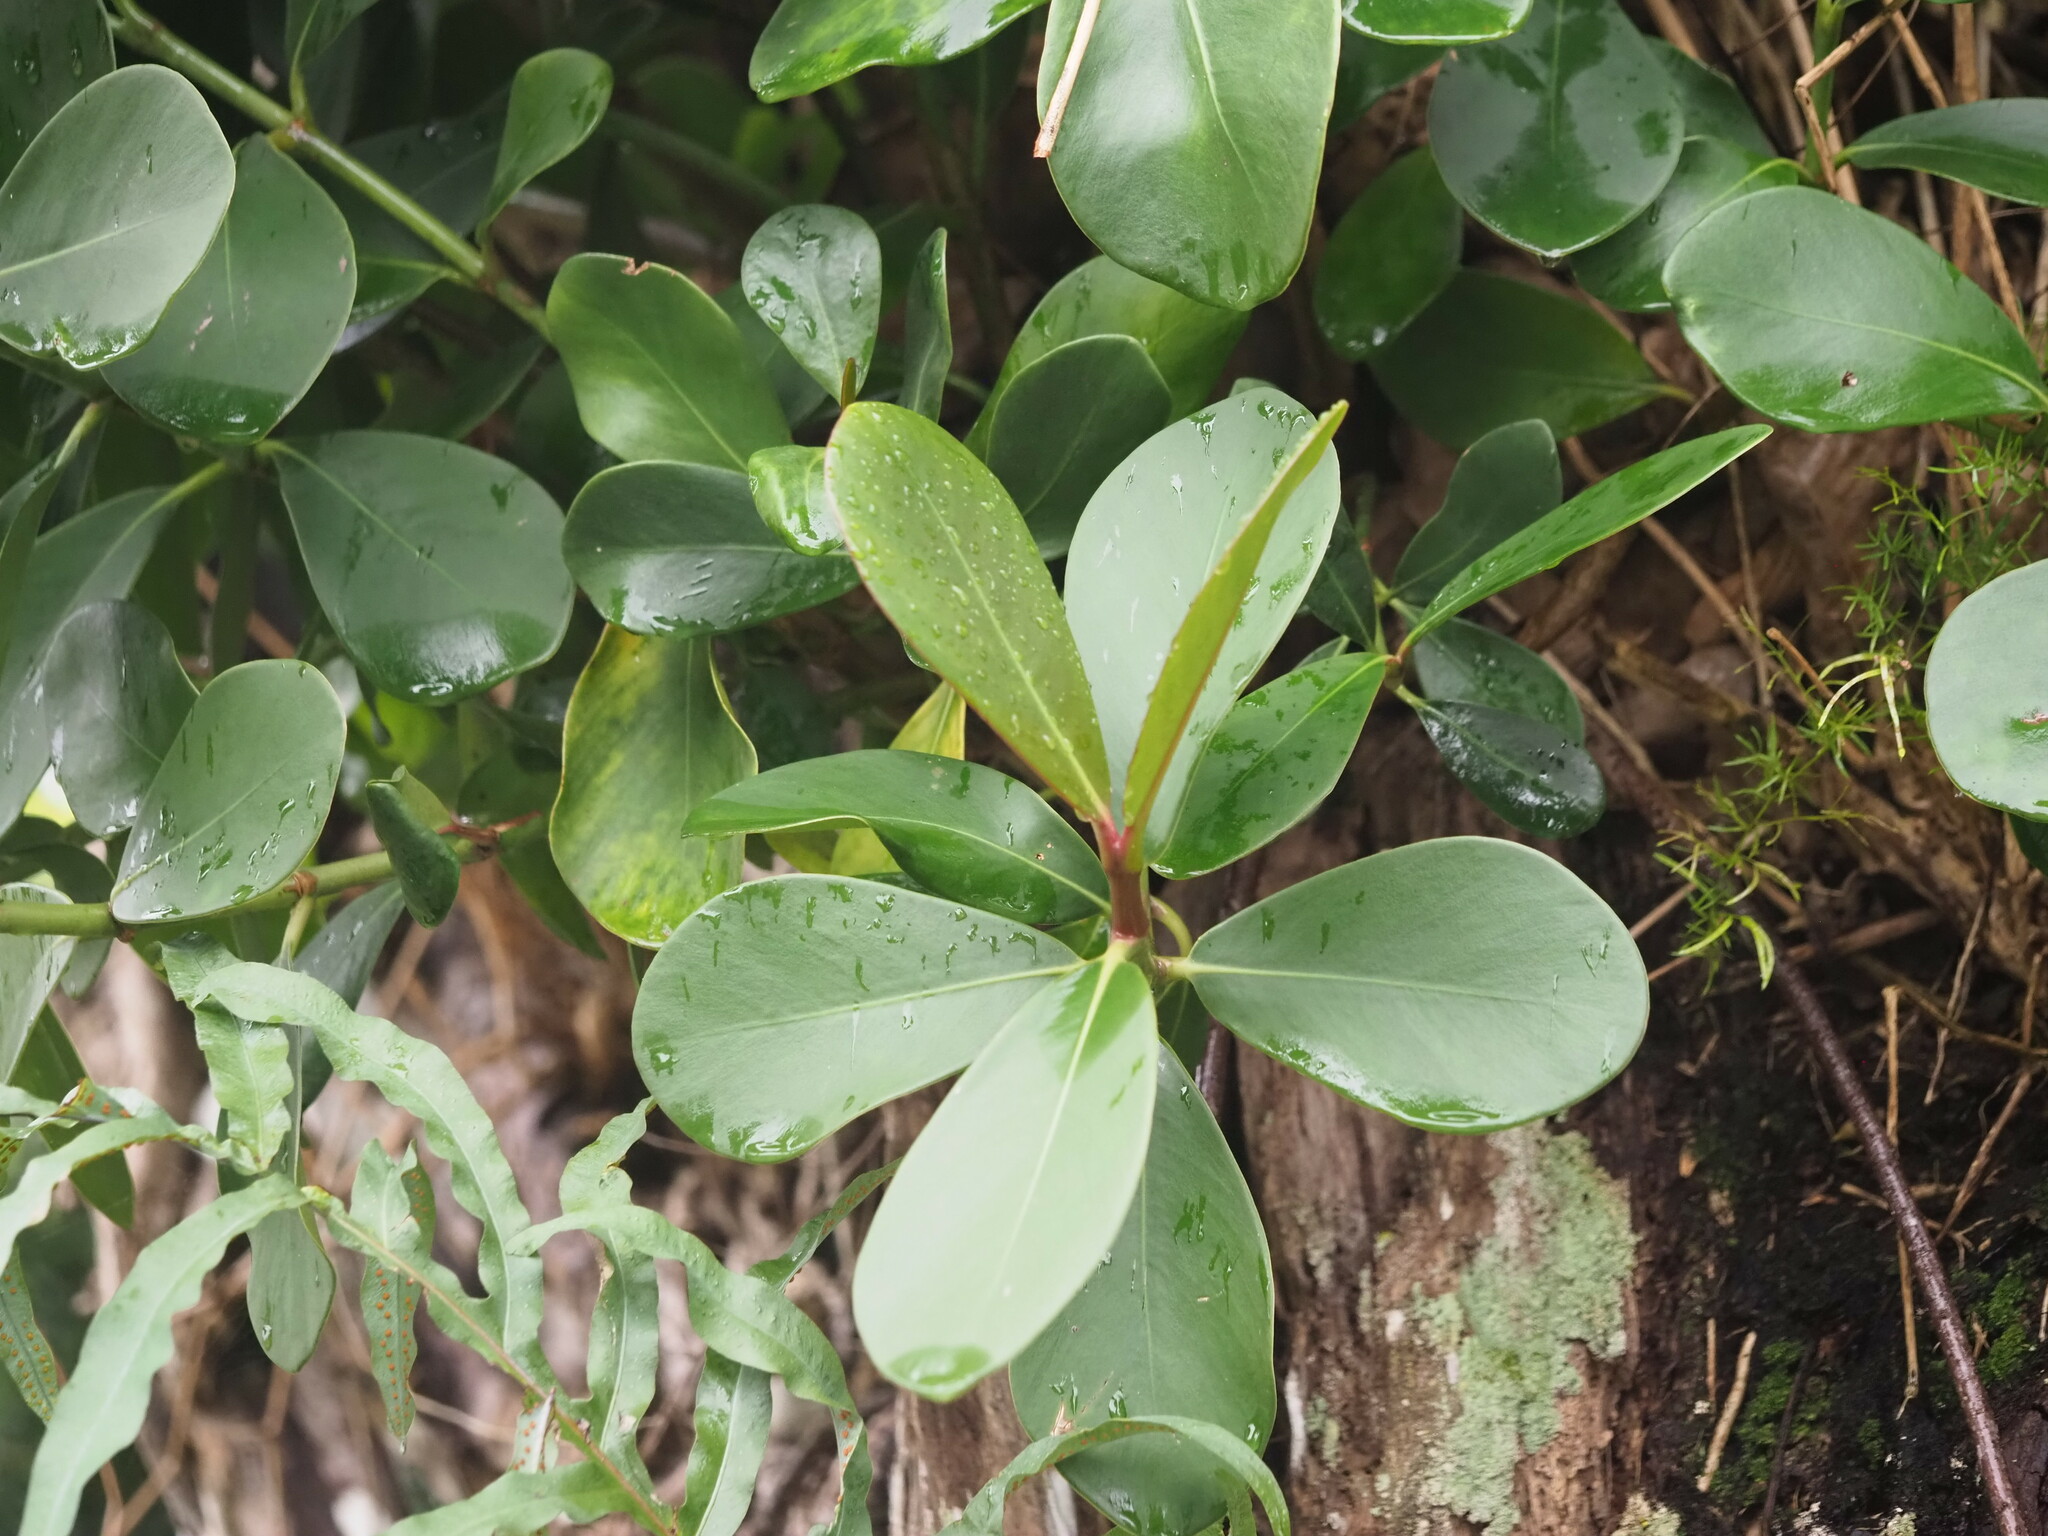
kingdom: Plantae
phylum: Tracheophyta
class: Magnoliopsida
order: Malpighiales
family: Clusiaceae
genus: Clusia
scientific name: Clusia rosea
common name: Scotch attorney
